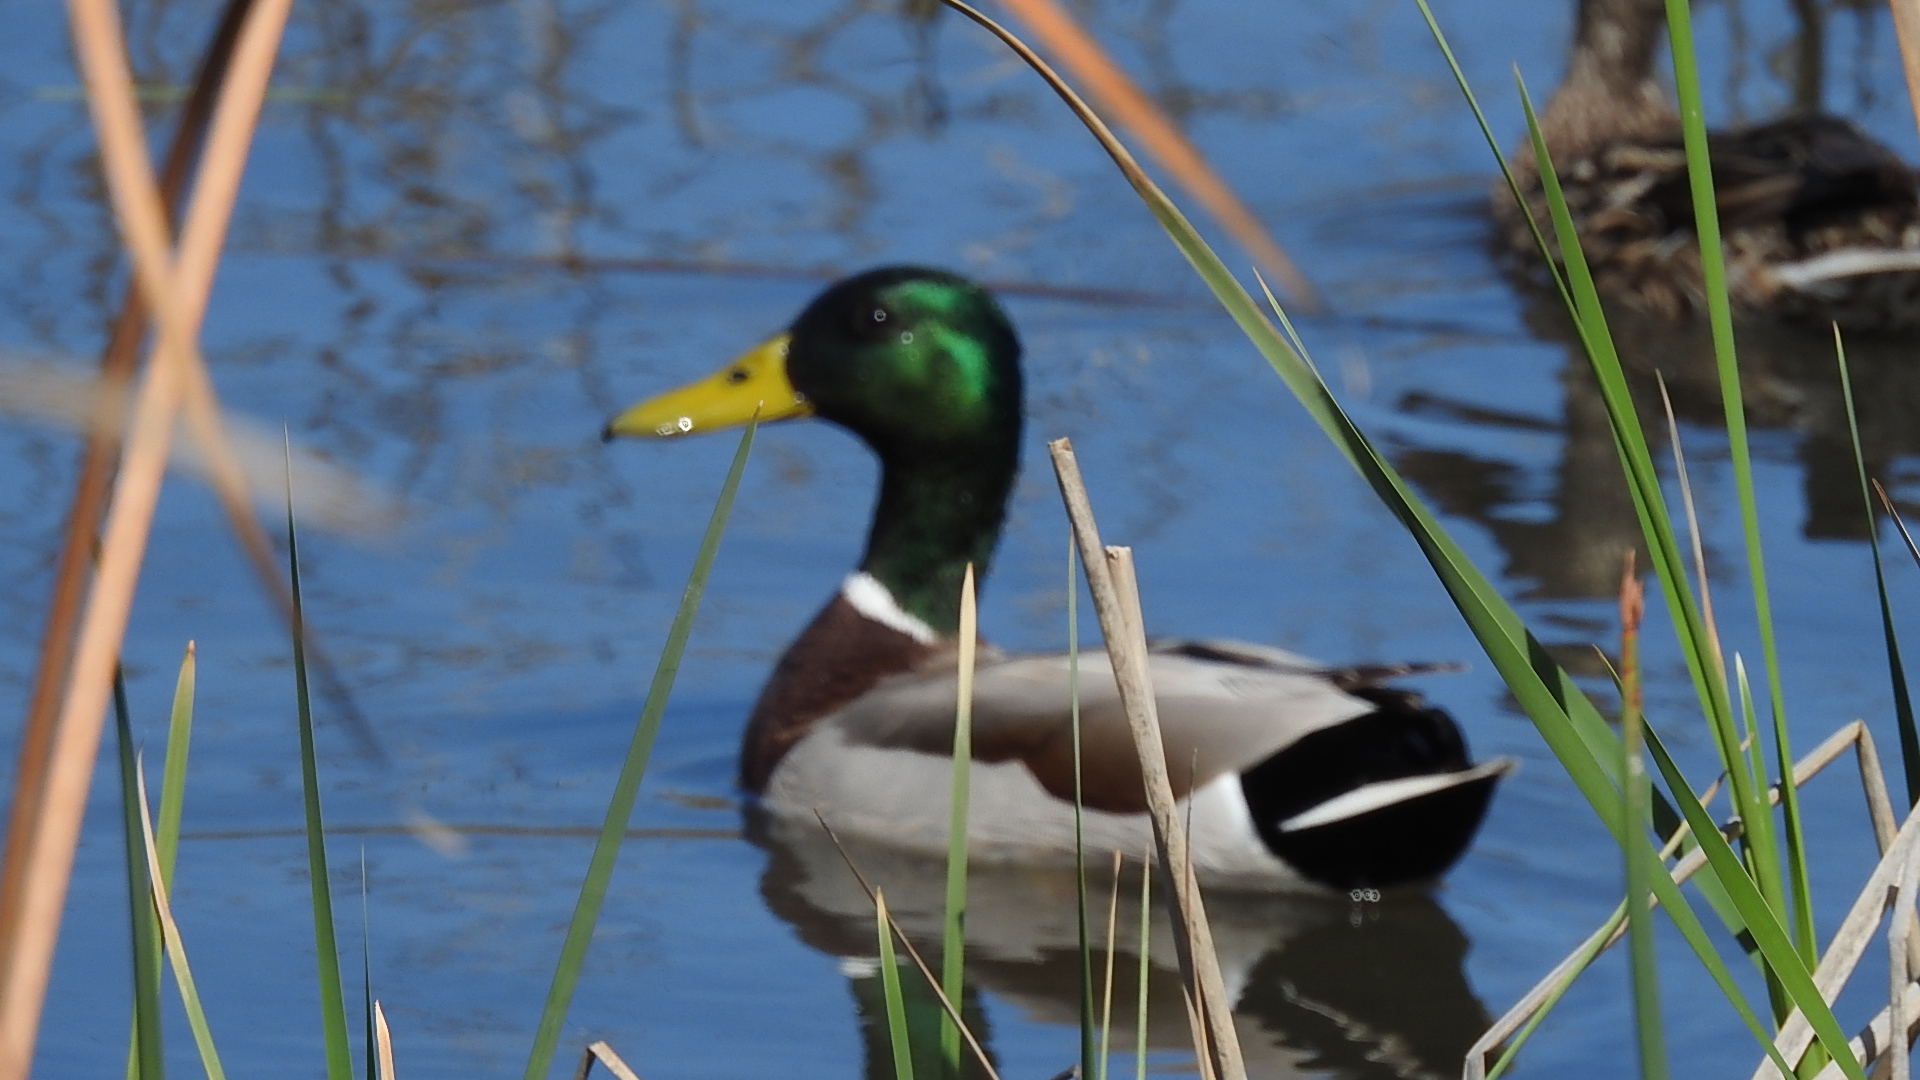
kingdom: Animalia
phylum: Chordata
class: Aves
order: Anseriformes
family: Anatidae
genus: Anas
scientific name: Anas platyrhynchos
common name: Mallard
